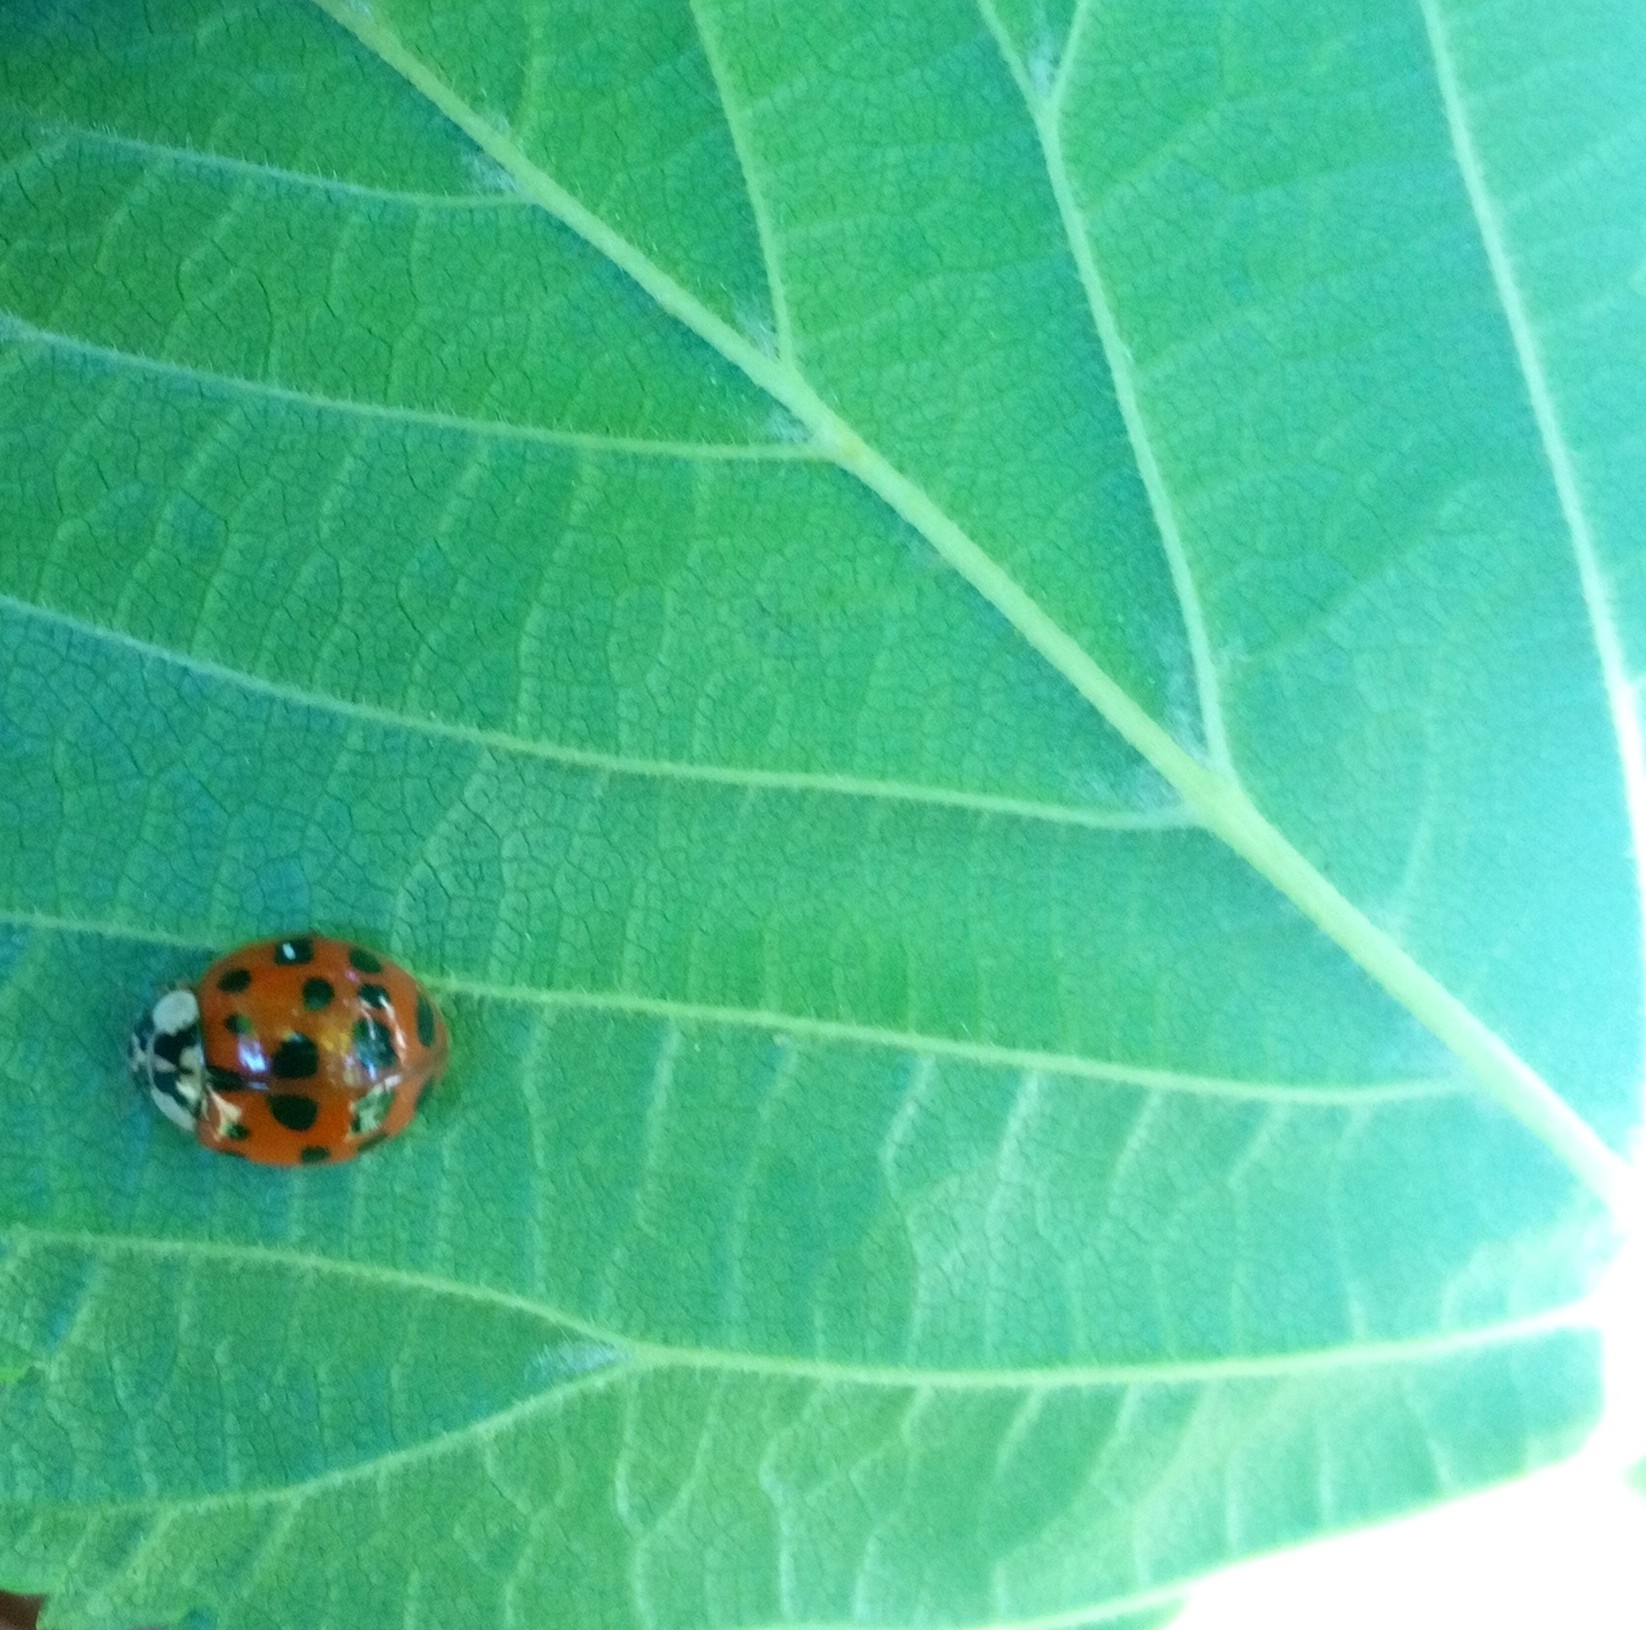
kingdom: Animalia
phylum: Arthropoda
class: Insecta
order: Coleoptera
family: Coccinellidae
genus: Harmonia
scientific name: Harmonia axyridis
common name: Harlequin ladybird
